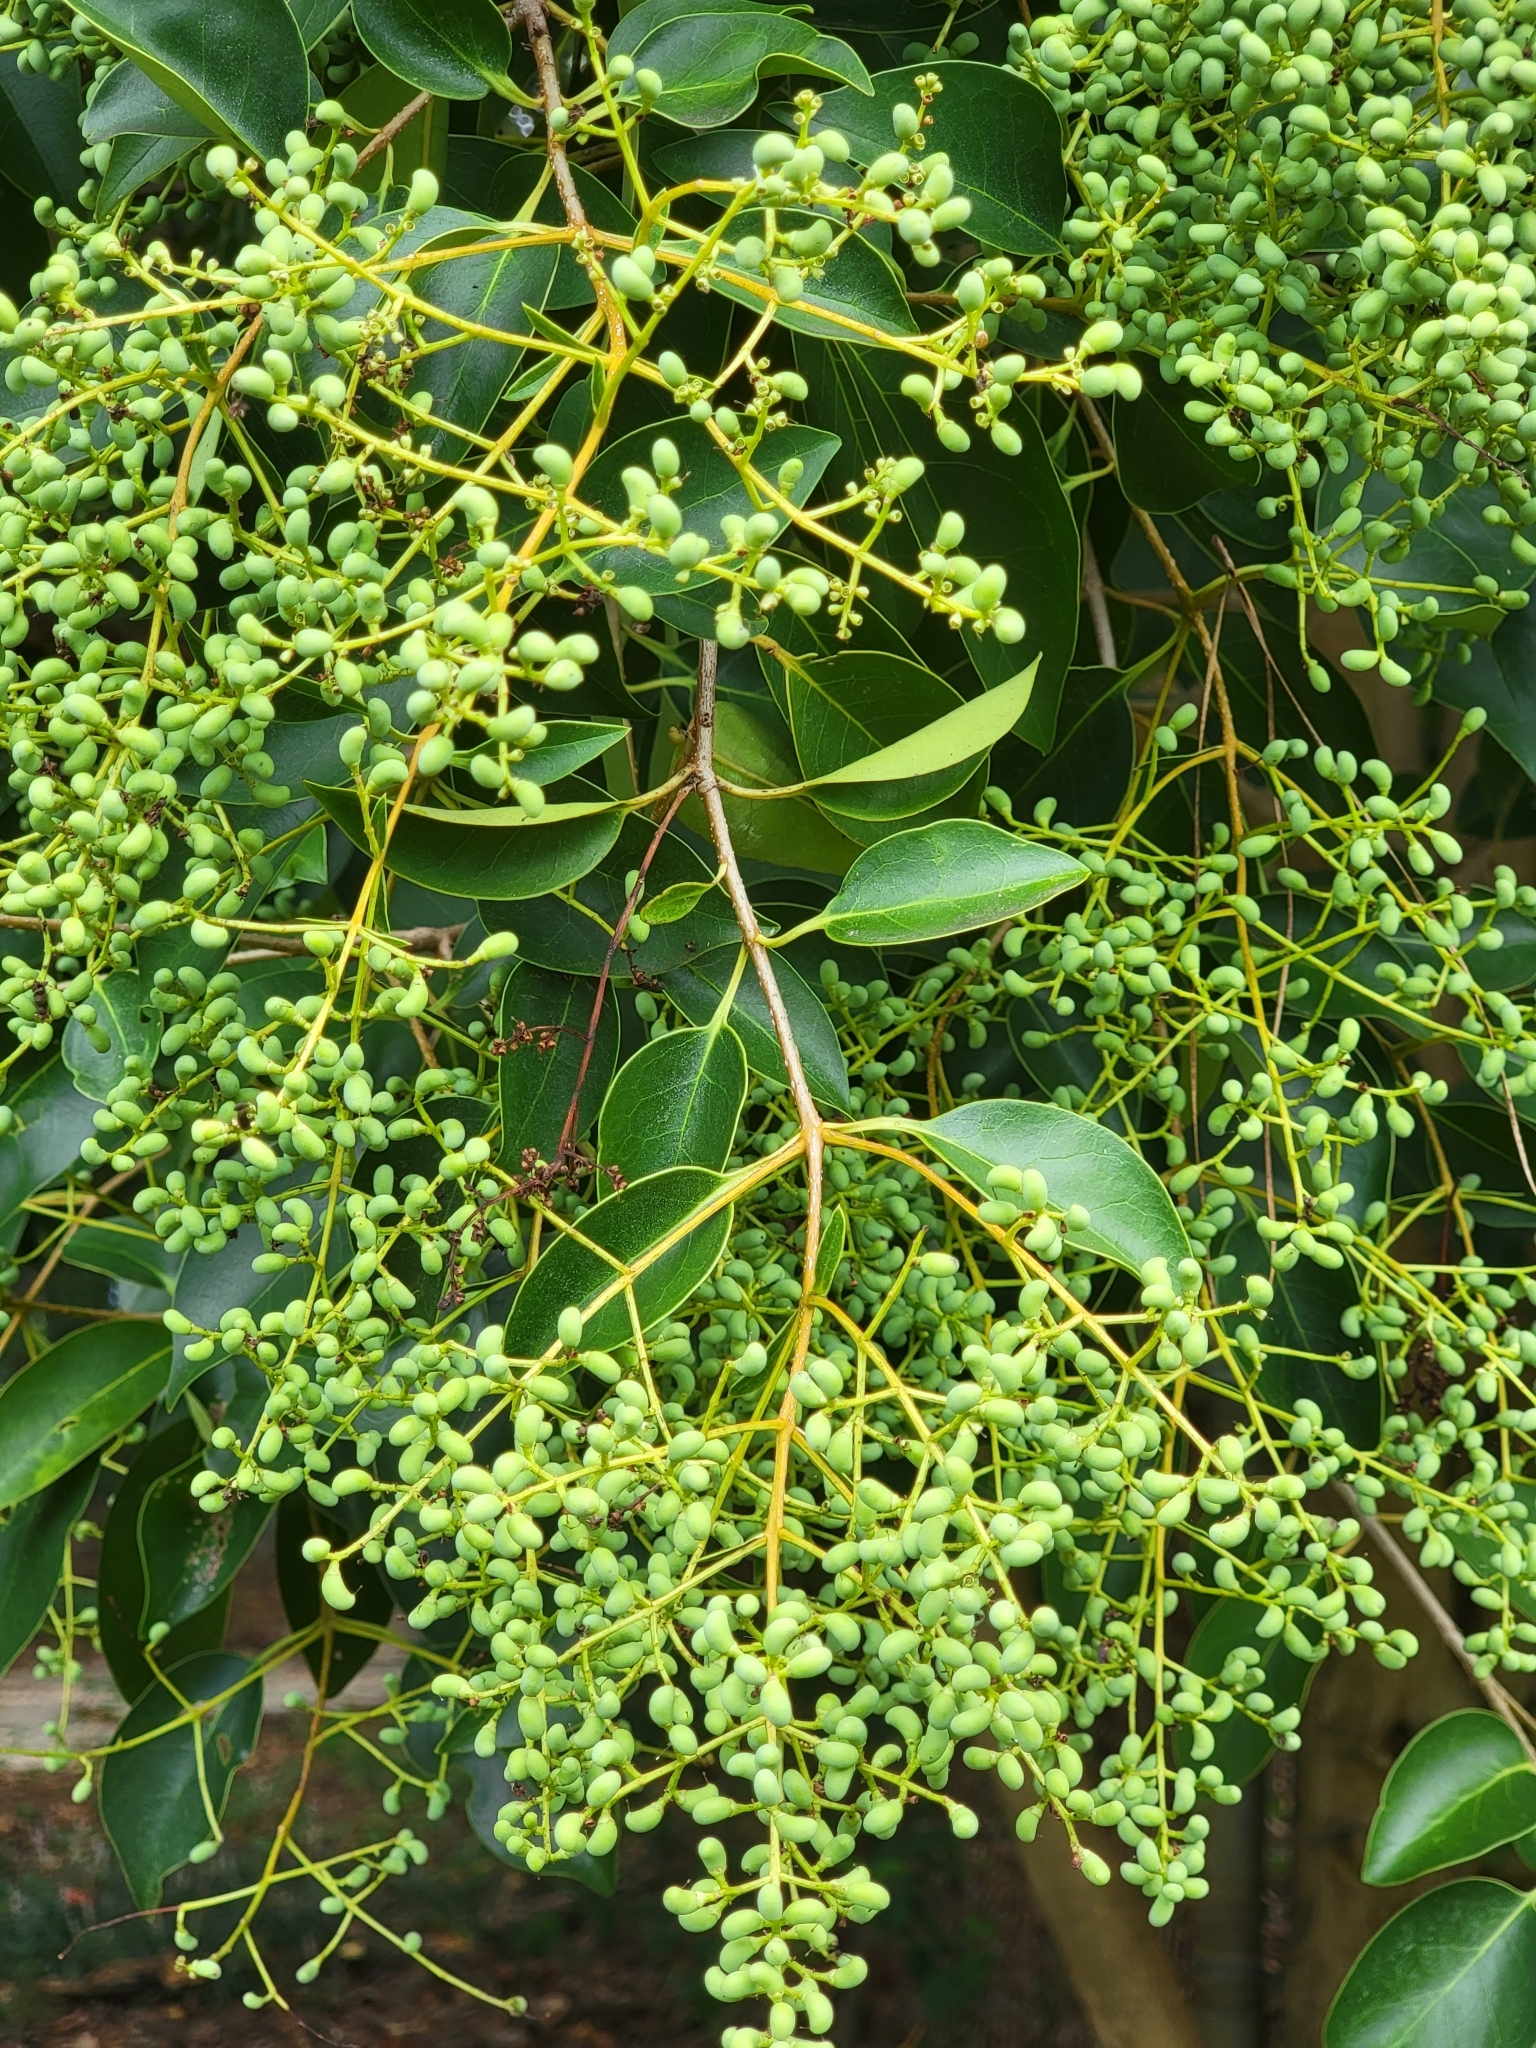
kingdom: Plantae
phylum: Tracheophyta
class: Magnoliopsida
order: Lamiales
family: Oleaceae
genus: Ligustrum
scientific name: Ligustrum lucidum
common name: Glossy privet
